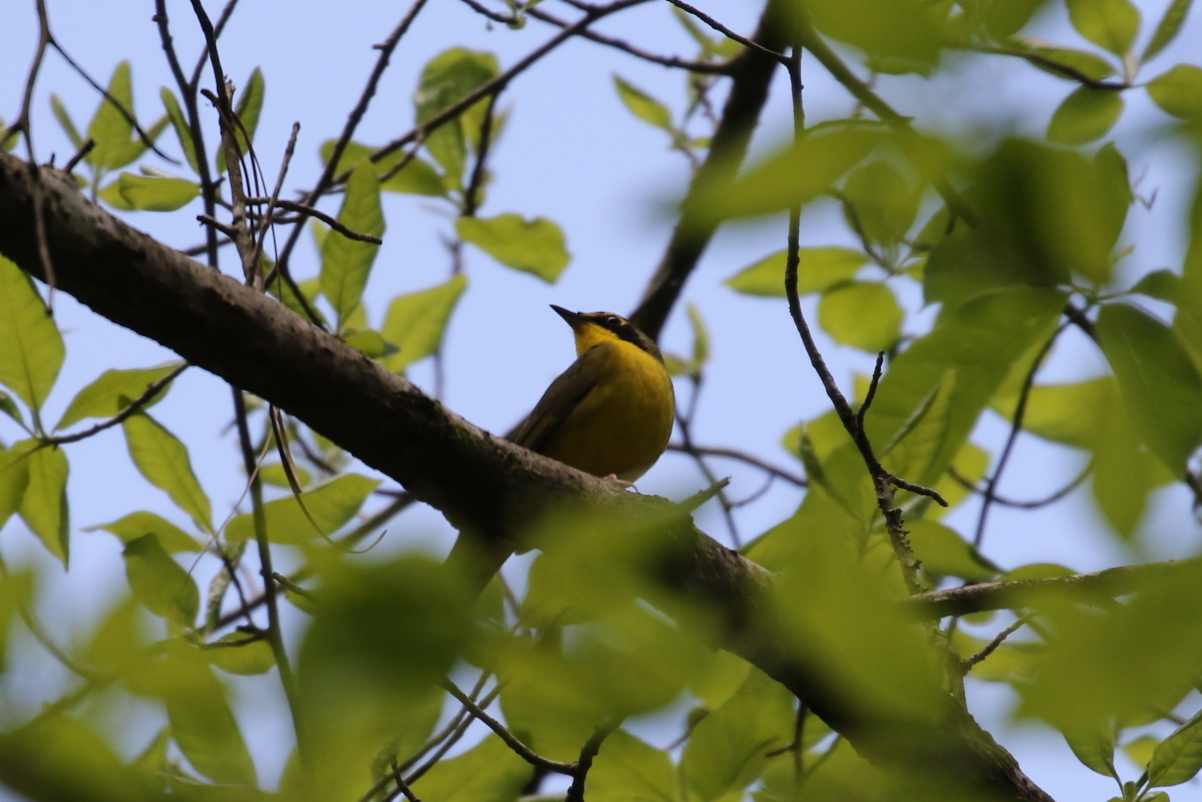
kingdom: Animalia
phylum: Chordata
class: Aves
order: Passeriformes
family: Parulidae
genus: Geothlypis
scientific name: Geothlypis formosa
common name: Kentucky warbler
